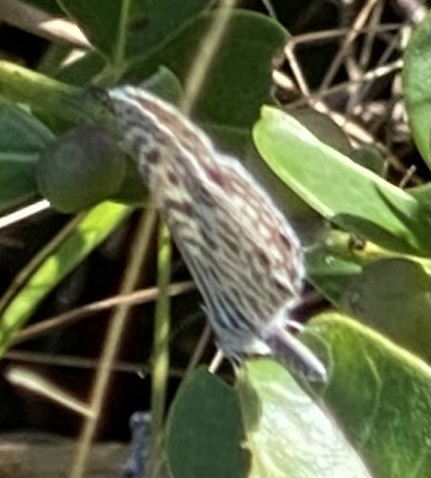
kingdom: Animalia
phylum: Arthropoda
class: Insecta
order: Lepidoptera
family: Lycaenidae
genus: Leptotes
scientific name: Leptotes
